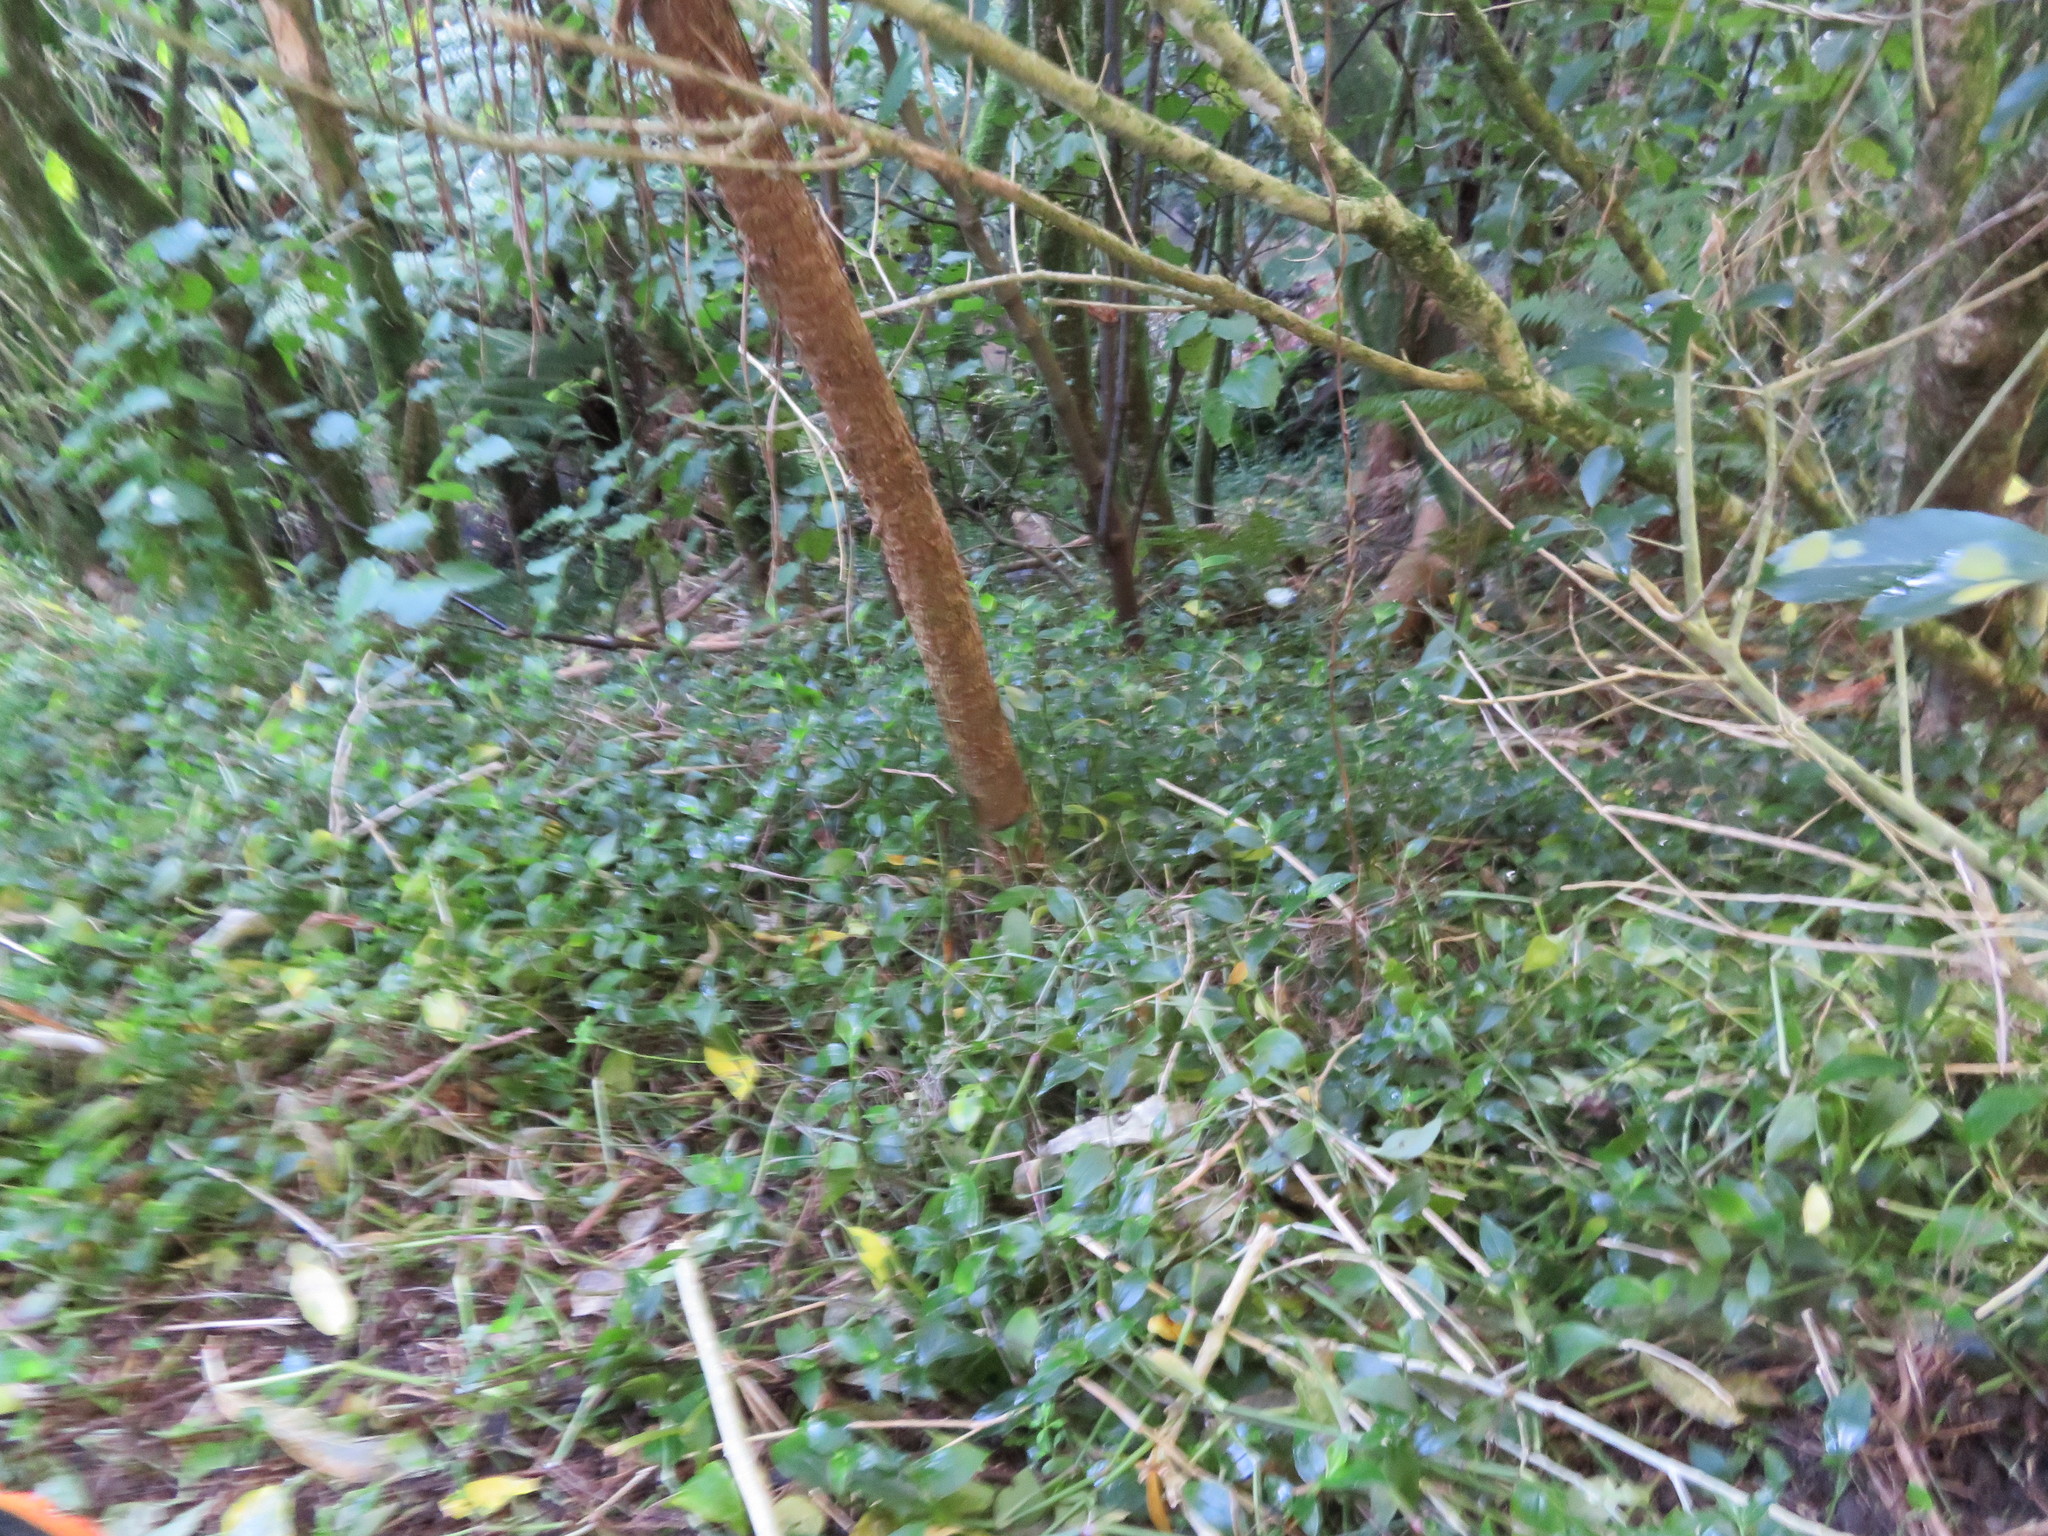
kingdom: Plantae
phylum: Tracheophyta
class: Magnoliopsida
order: Piperales
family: Piperaceae
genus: Macropiper
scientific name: Macropiper excelsum
